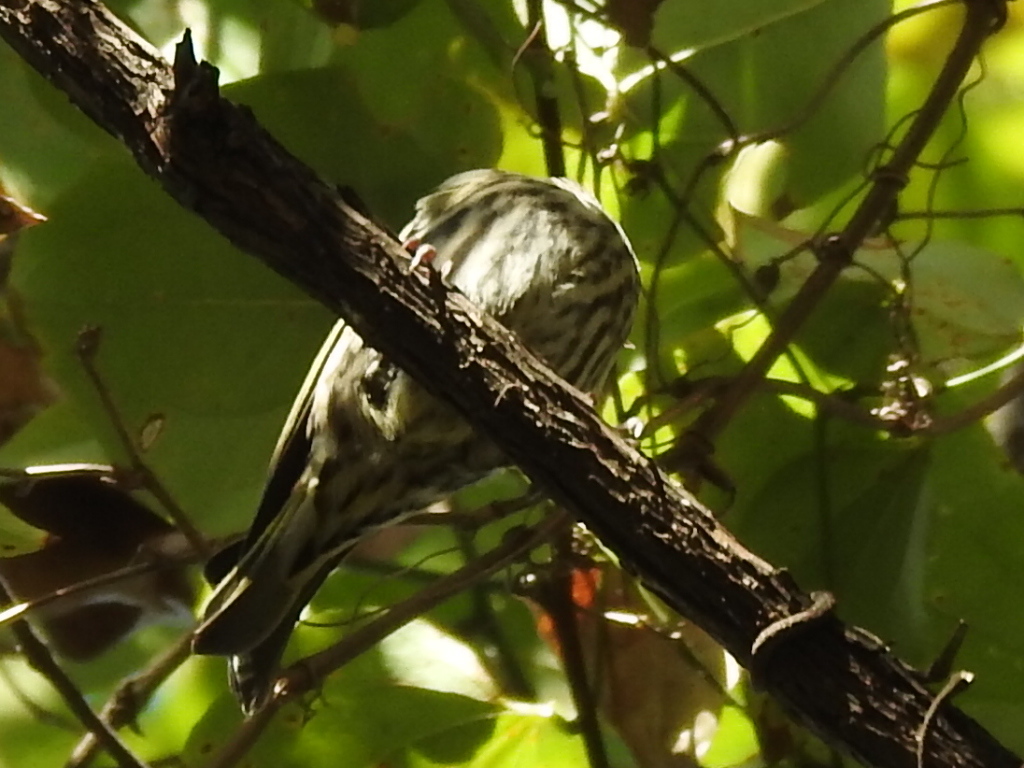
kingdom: Animalia
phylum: Chordata
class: Aves
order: Passeriformes
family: Fringillidae
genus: Spinus
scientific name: Spinus pinus
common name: Pine siskin
